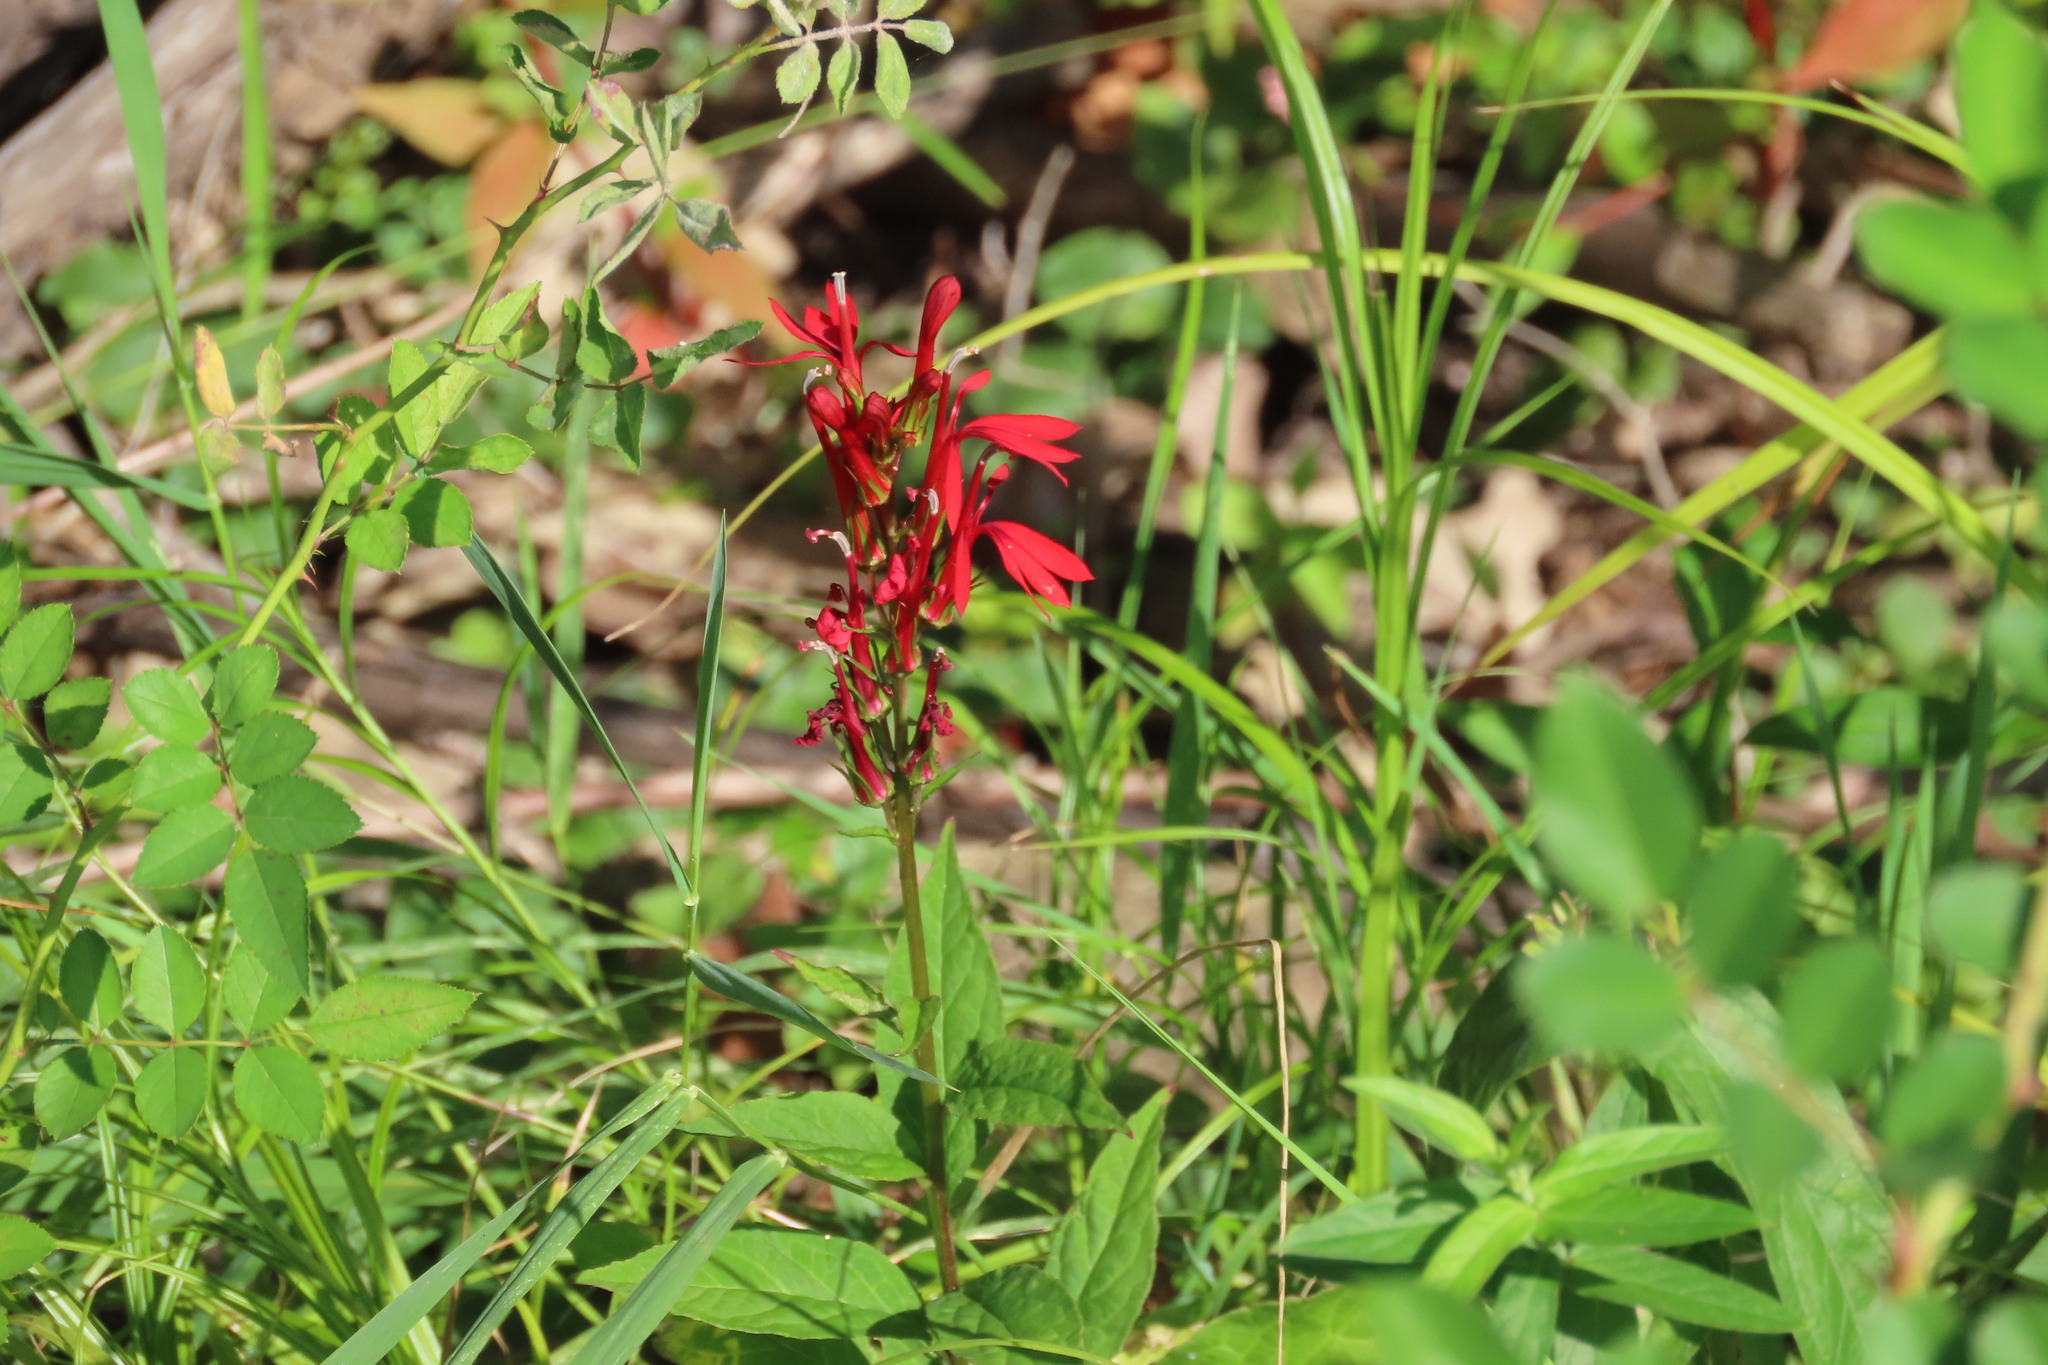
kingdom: Plantae
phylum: Tracheophyta
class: Magnoliopsida
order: Asterales
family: Campanulaceae
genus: Lobelia
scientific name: Lobelia cardinalis
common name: Cardinal flower
